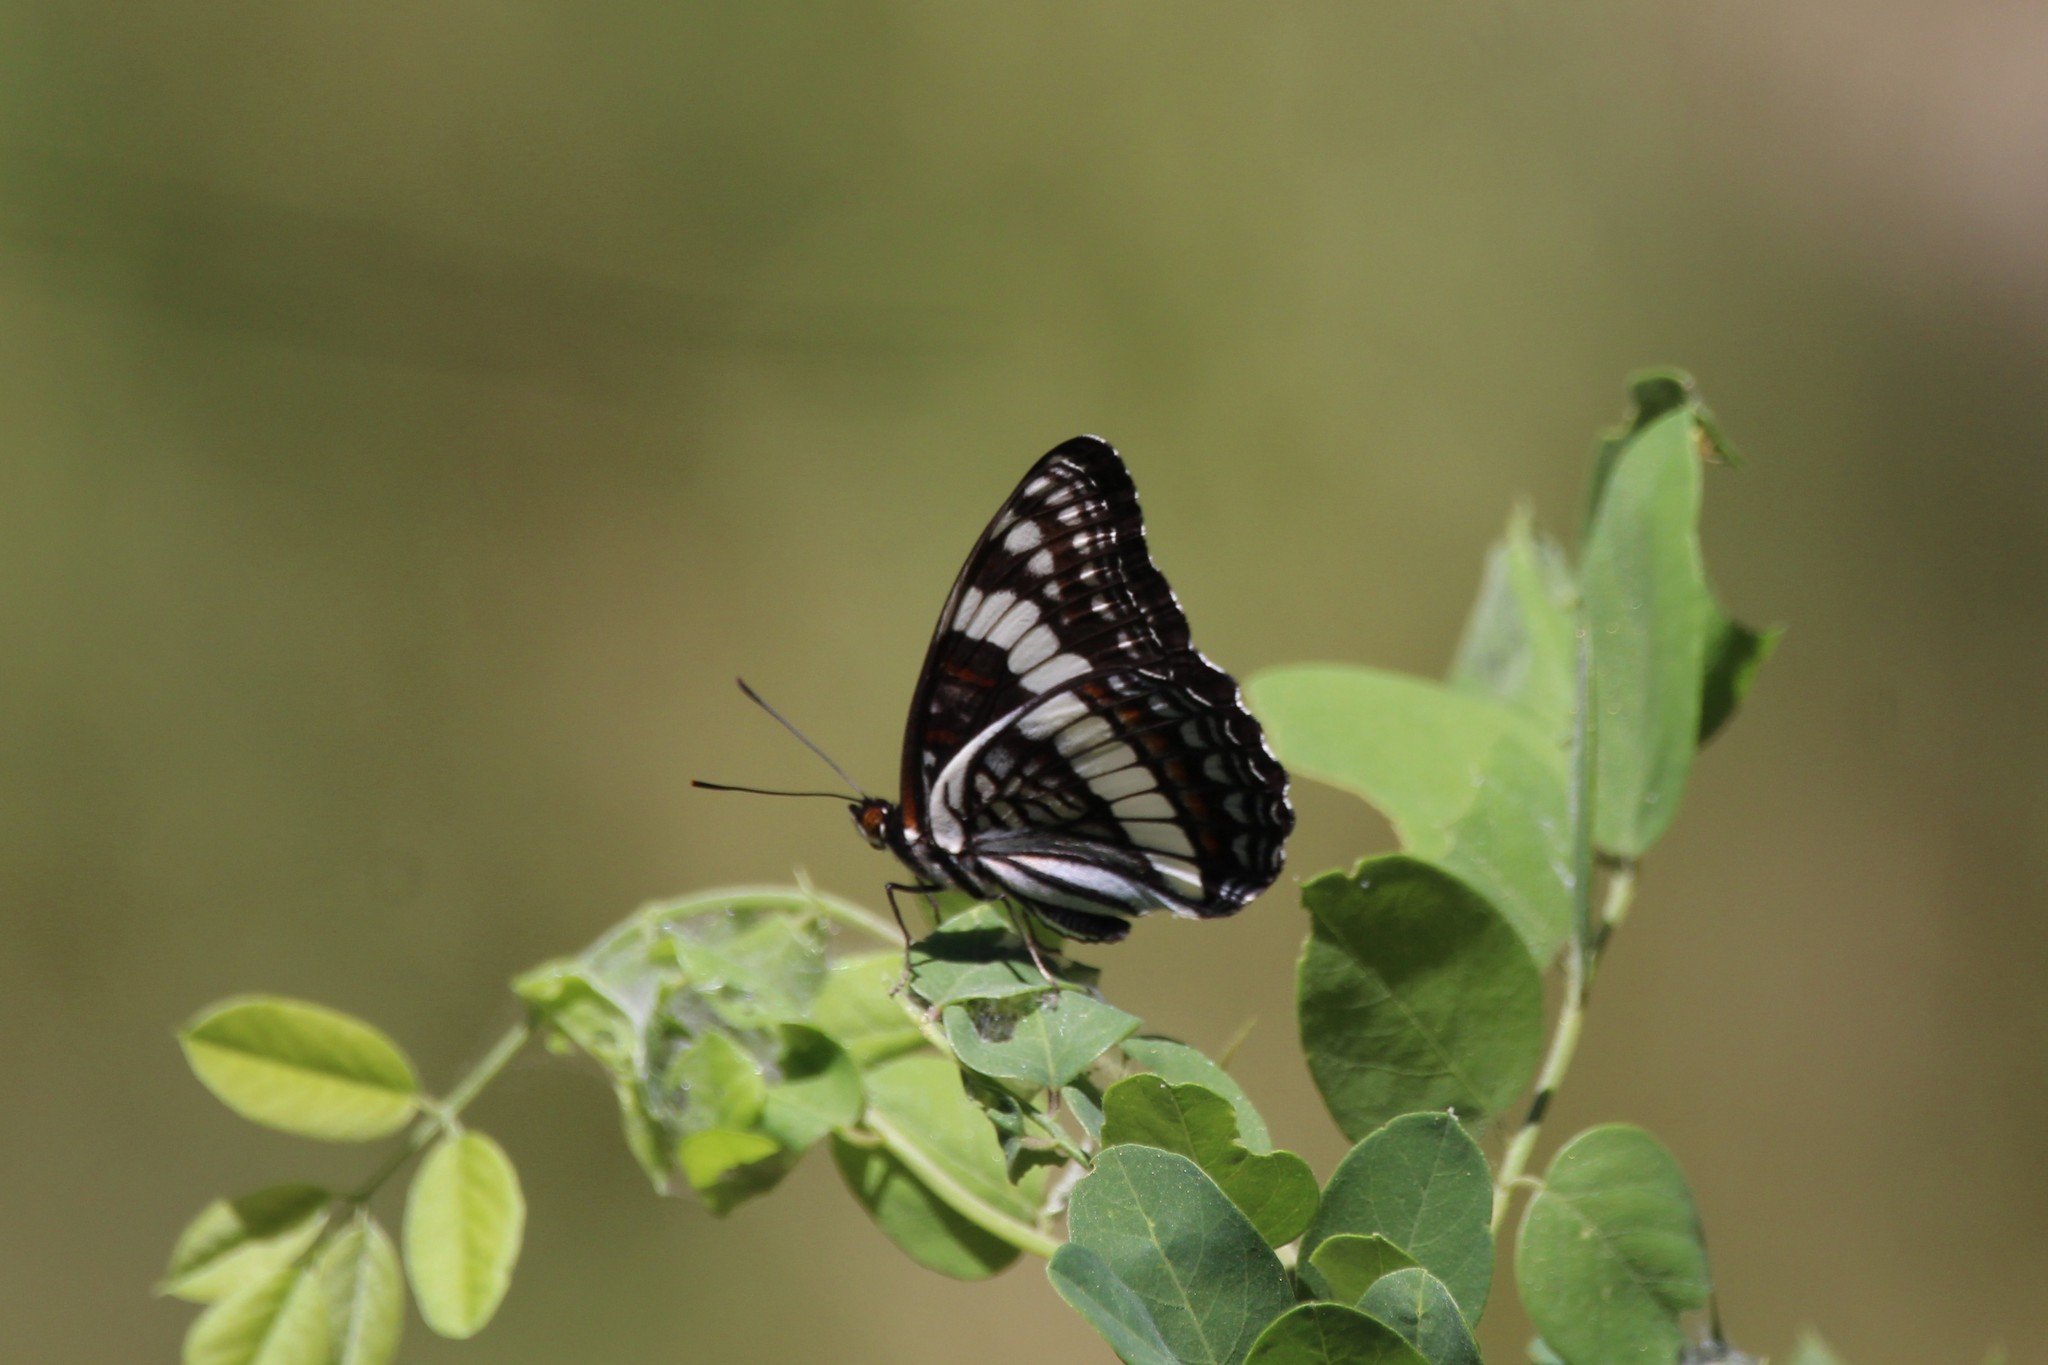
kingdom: Animalia
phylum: Arthropoda
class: Insecta
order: Lepidoptera
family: Nymphalidae
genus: Limenitis
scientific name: Limenitis weidemeyerii
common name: Weidemeyer's admiral
